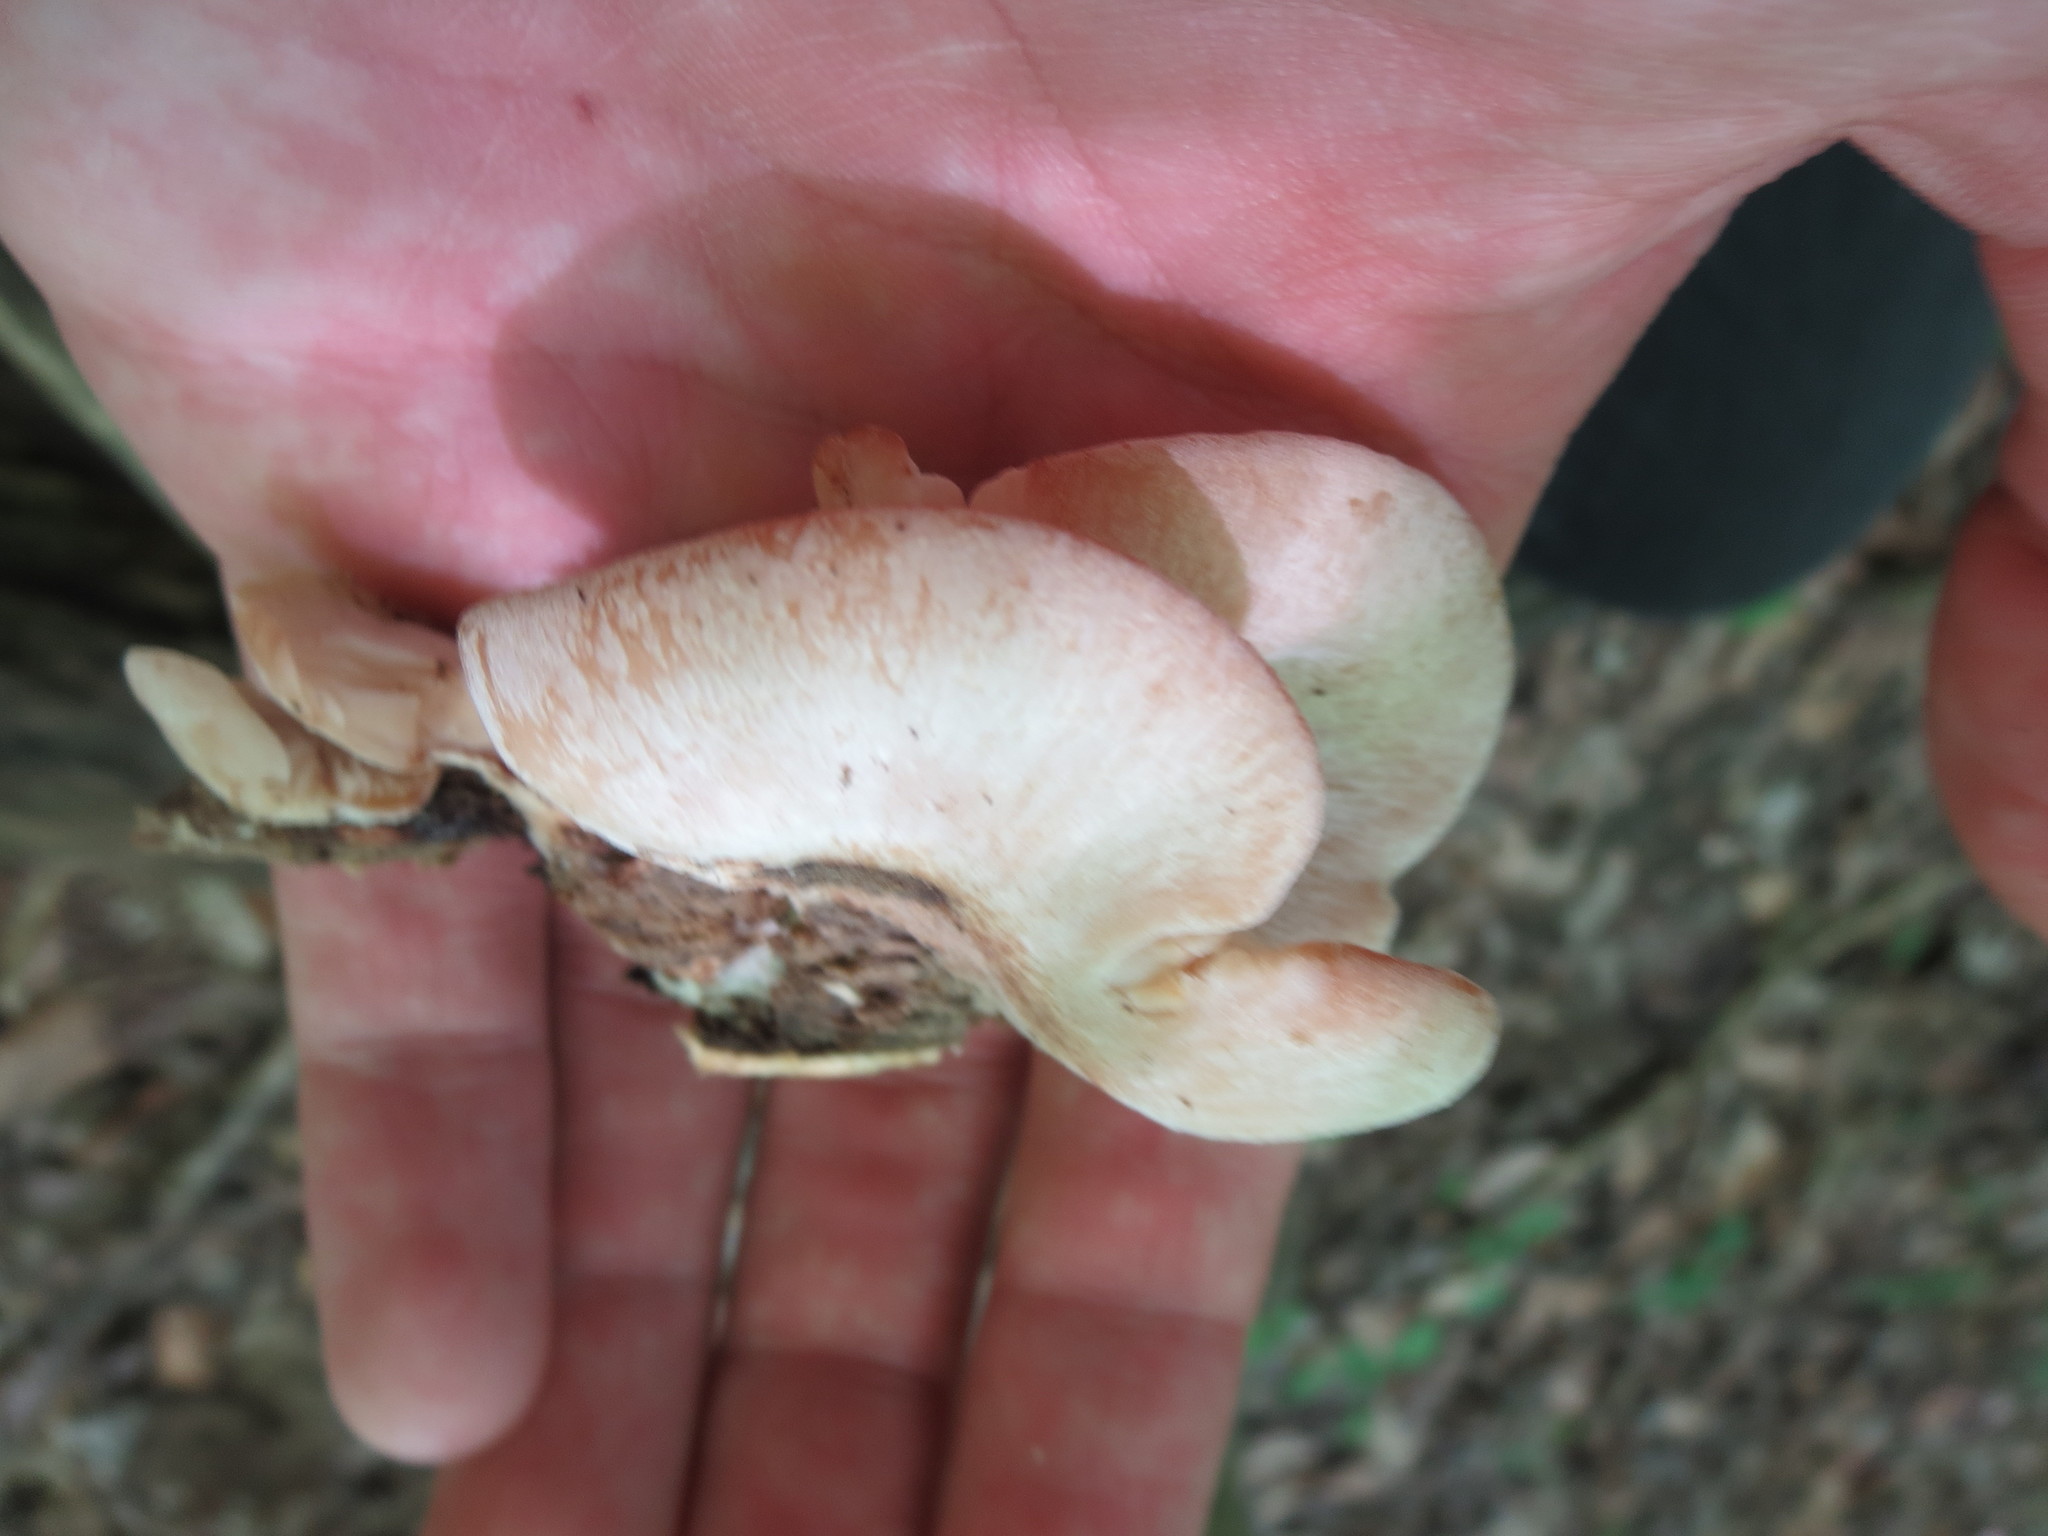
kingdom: Fungi
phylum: Basidiomycota
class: Agaricomycetes
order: Russulales
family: Auriscalpiaceae
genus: Lentinellus
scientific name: Lentinellus ursinus
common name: Bear lentinus
